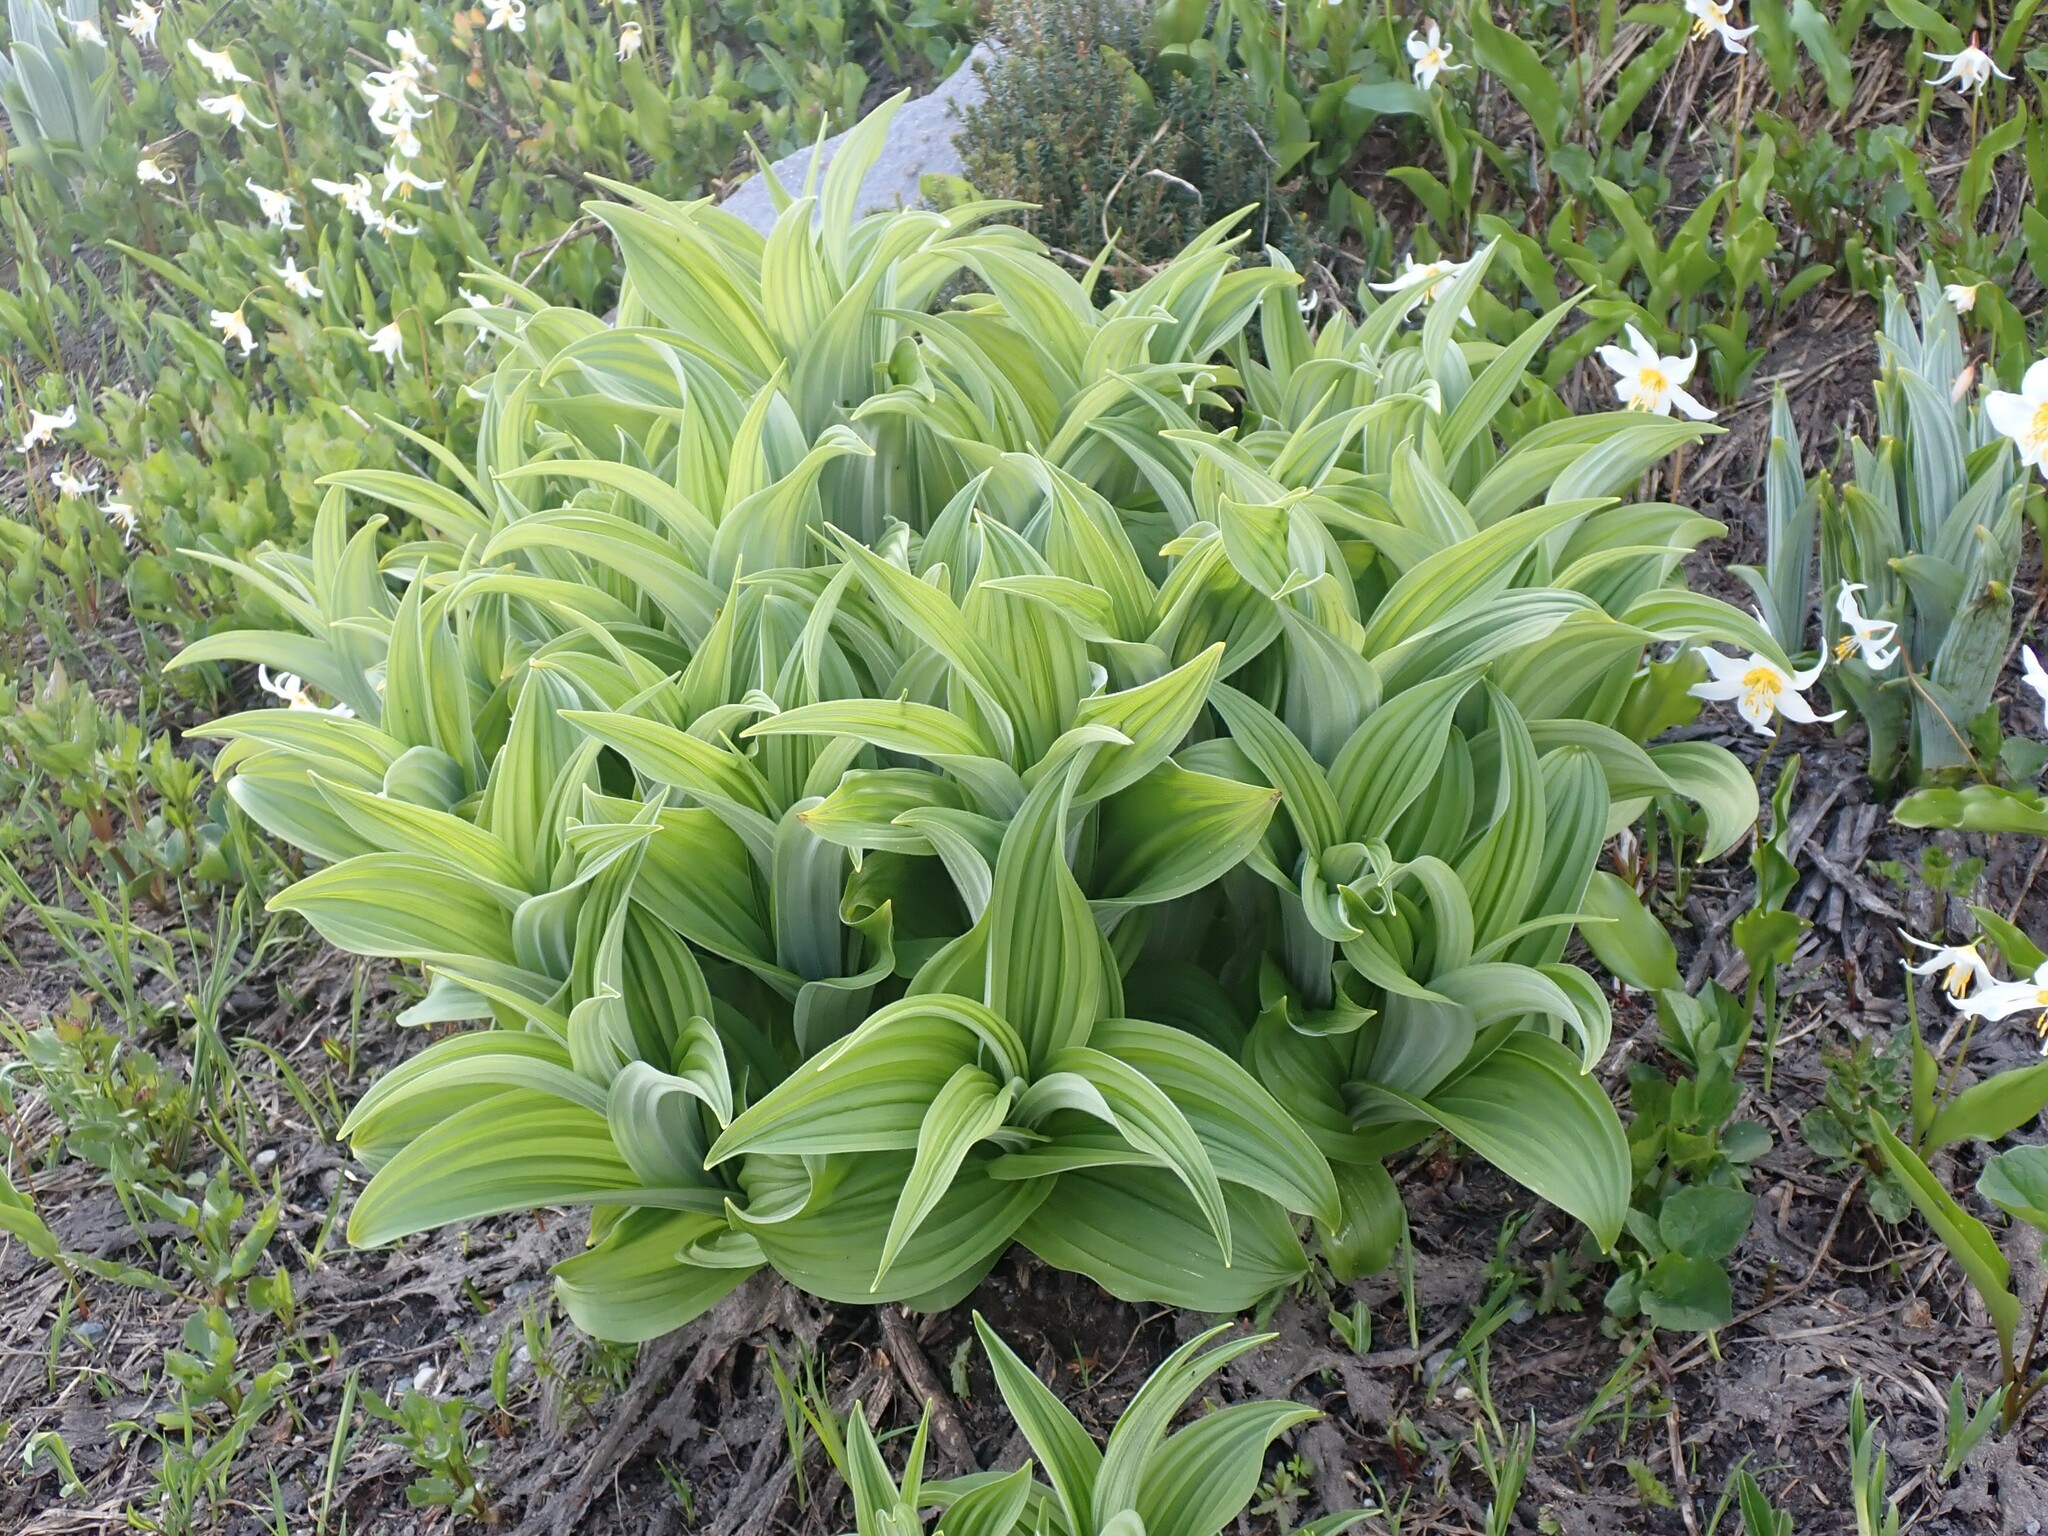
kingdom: Plantae
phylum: Tracheophyta
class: Liliopsida
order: Liliales
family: Melanthiaceae
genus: Veratrum
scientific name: Veratrum viride
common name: American false hellebore
